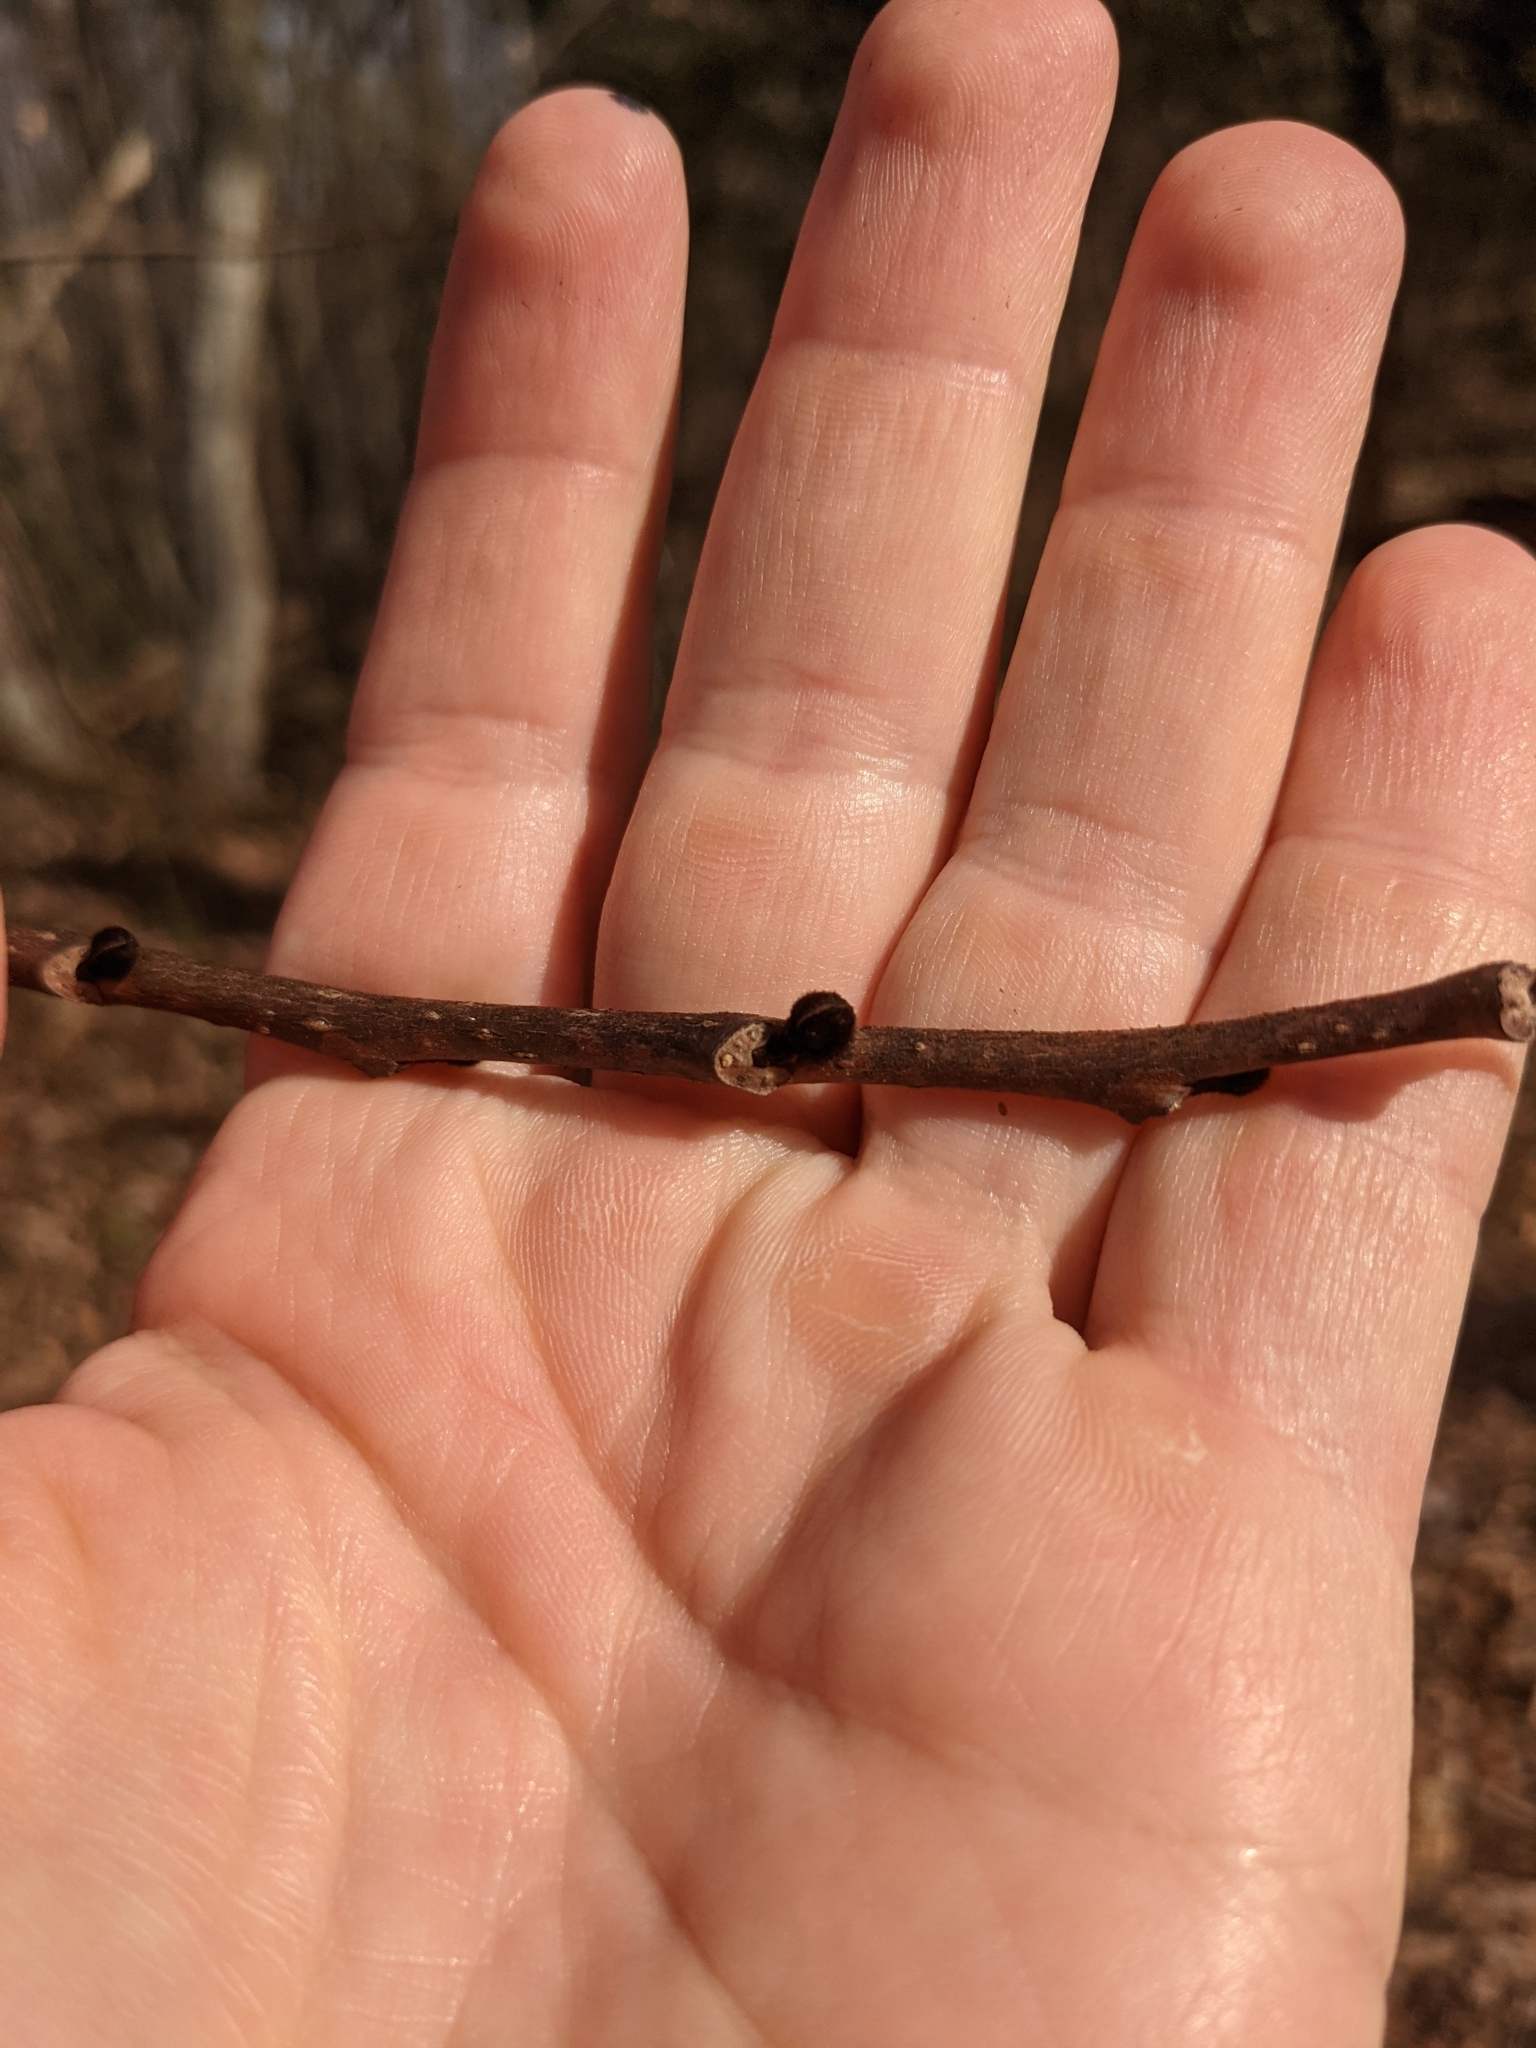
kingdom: Plantae
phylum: Tracheophyta
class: Magnoliopsida
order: Magnoliales
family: Annonaceae
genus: Asimina
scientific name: Asimina triloba
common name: Dog-banana
